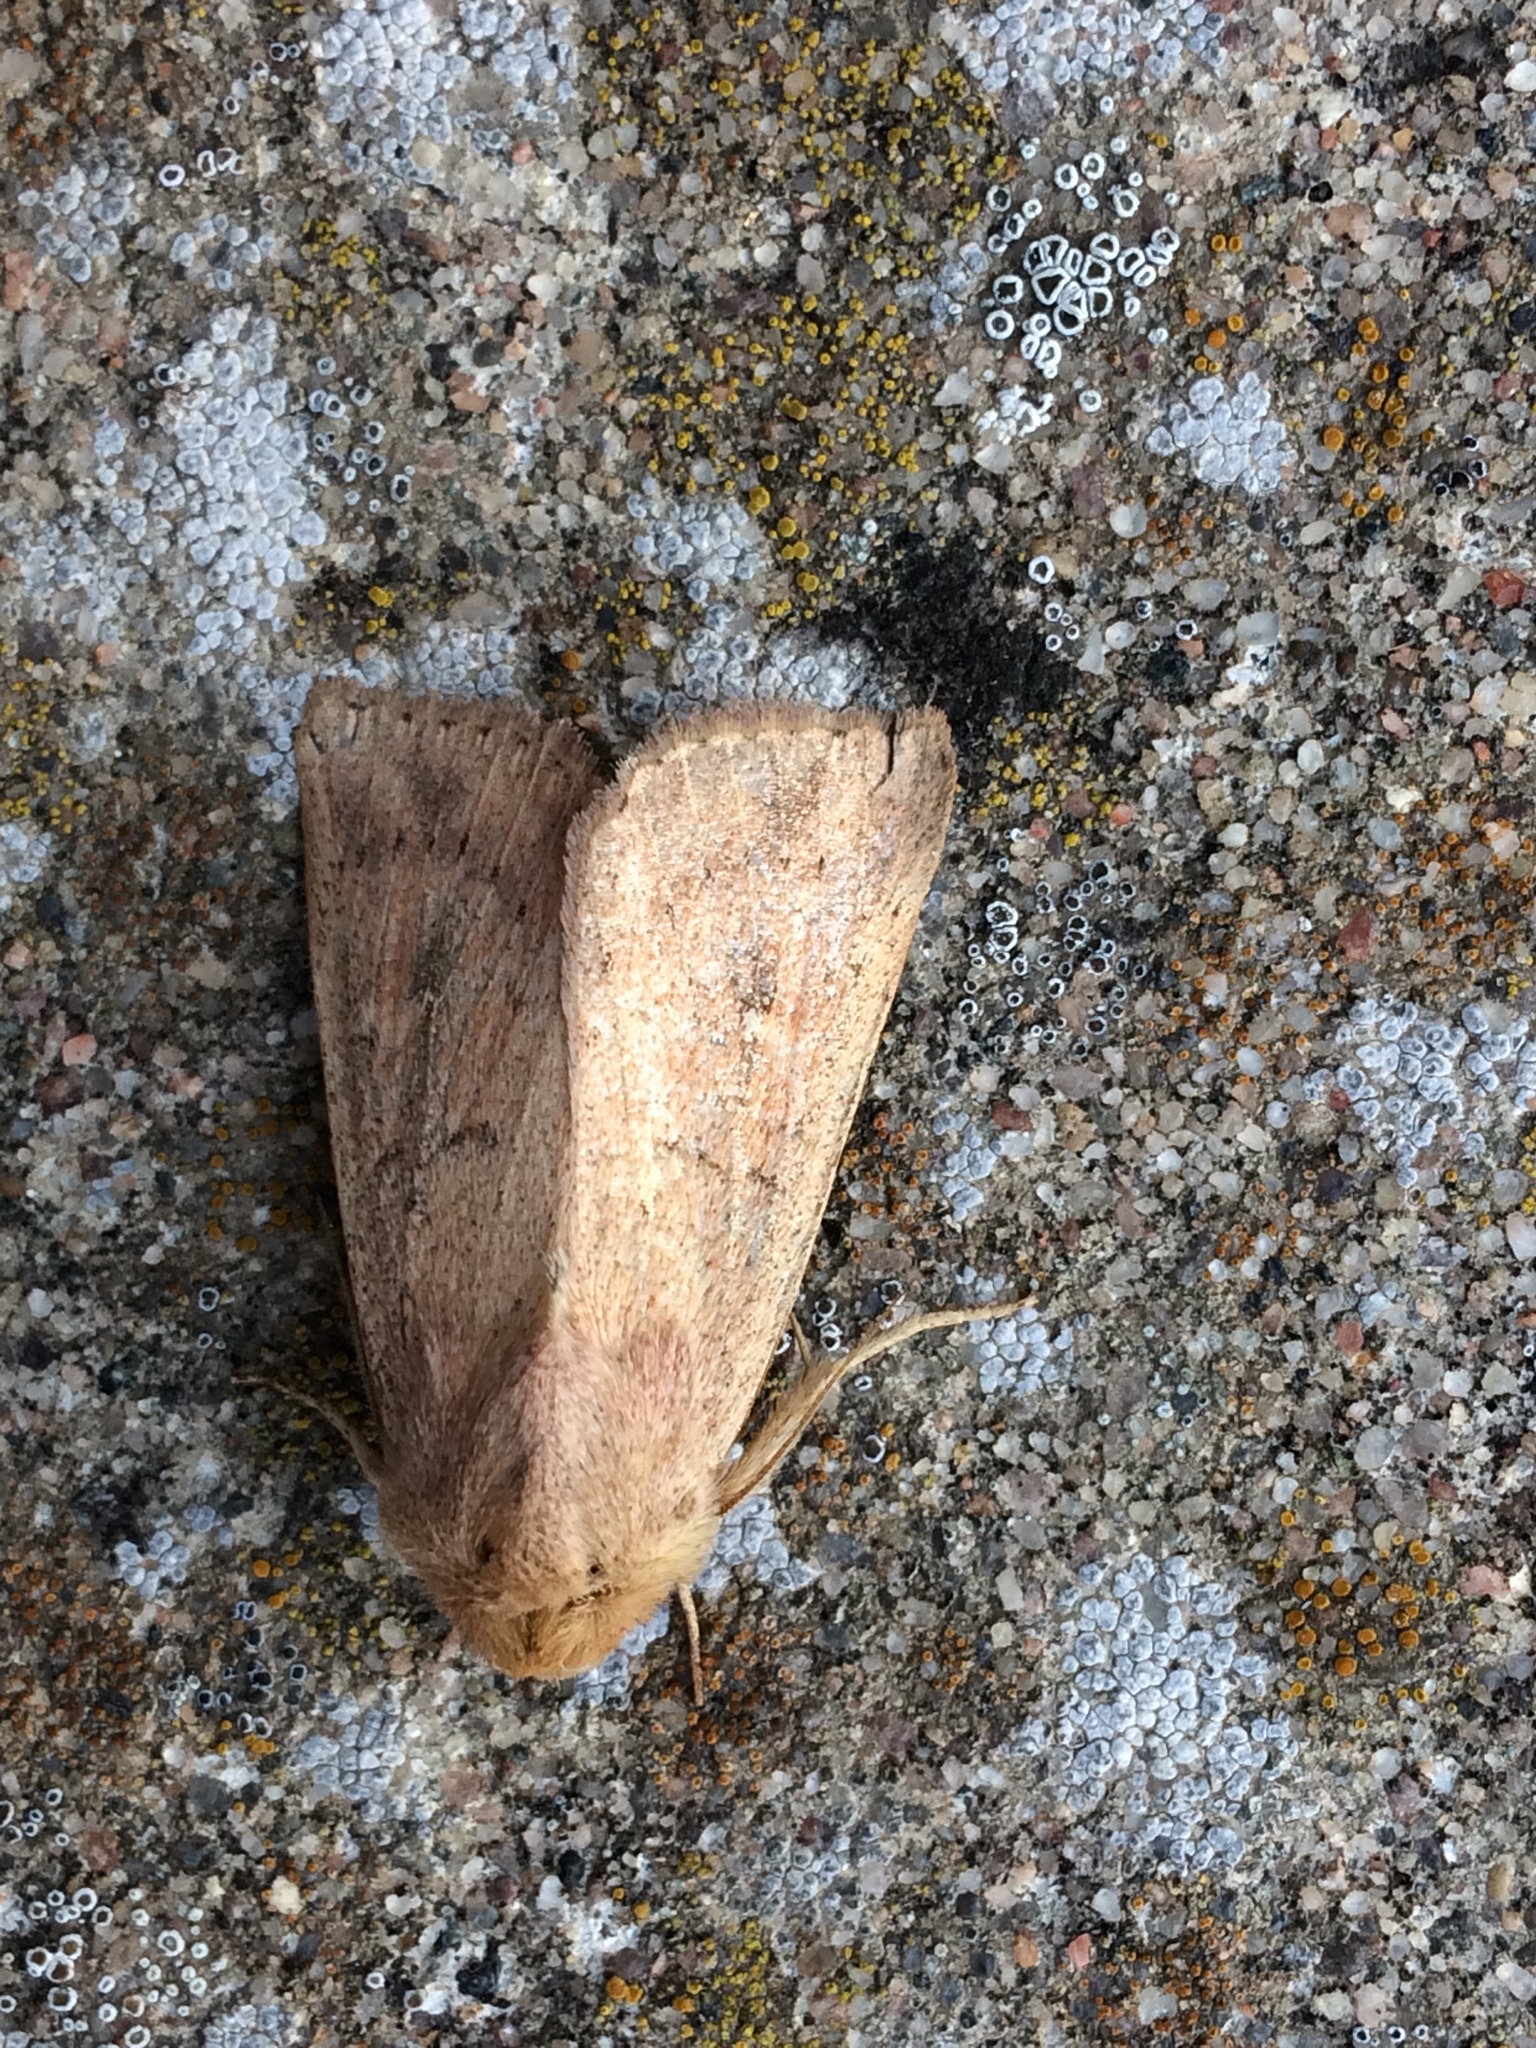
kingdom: Animalia
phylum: Arthropoda
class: Insecta
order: Lepidoptera
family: Noctuidae
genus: Mythimna
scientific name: Mythimna ferrago
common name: Clay
